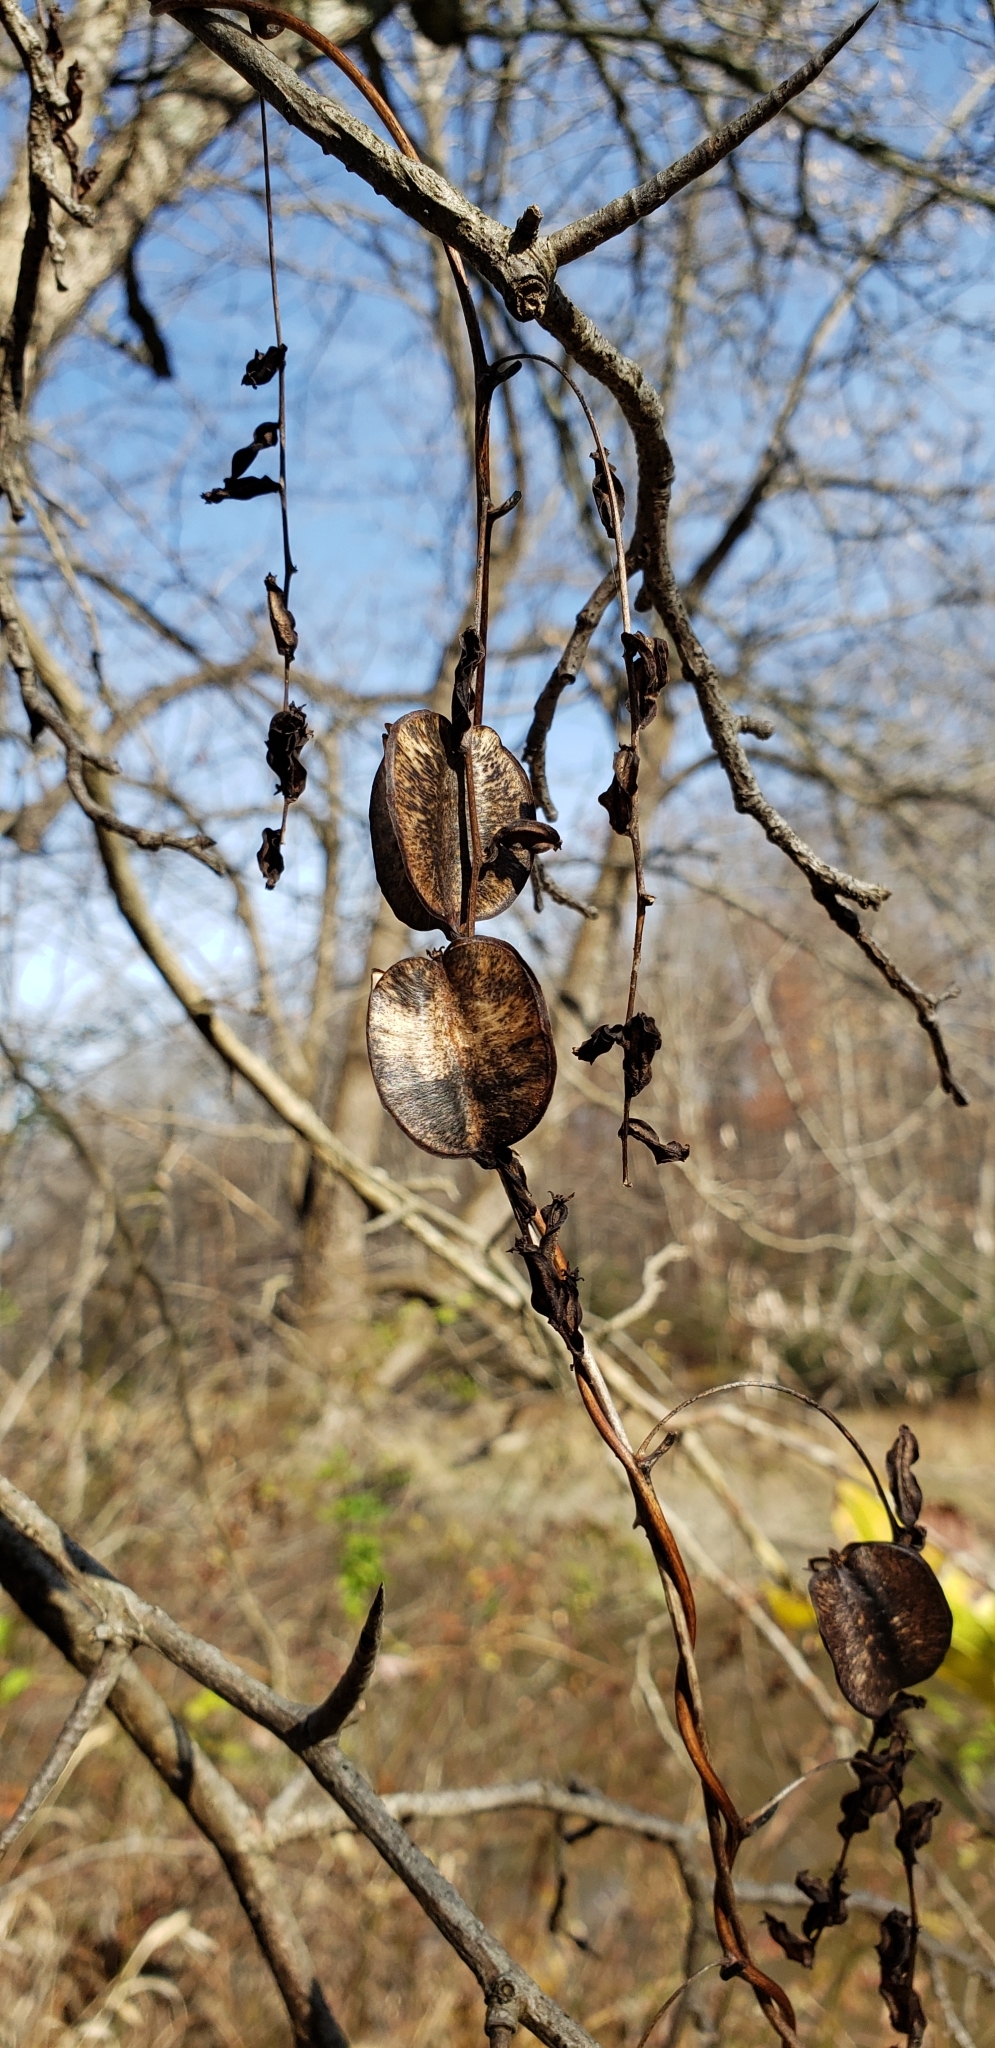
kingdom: Plantae
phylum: Tracheophyta
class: Liliopsida
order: Dioscoreales
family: Dioscoreaceae
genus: Dioscorea
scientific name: Dioscorea villosa
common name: Wild yam
